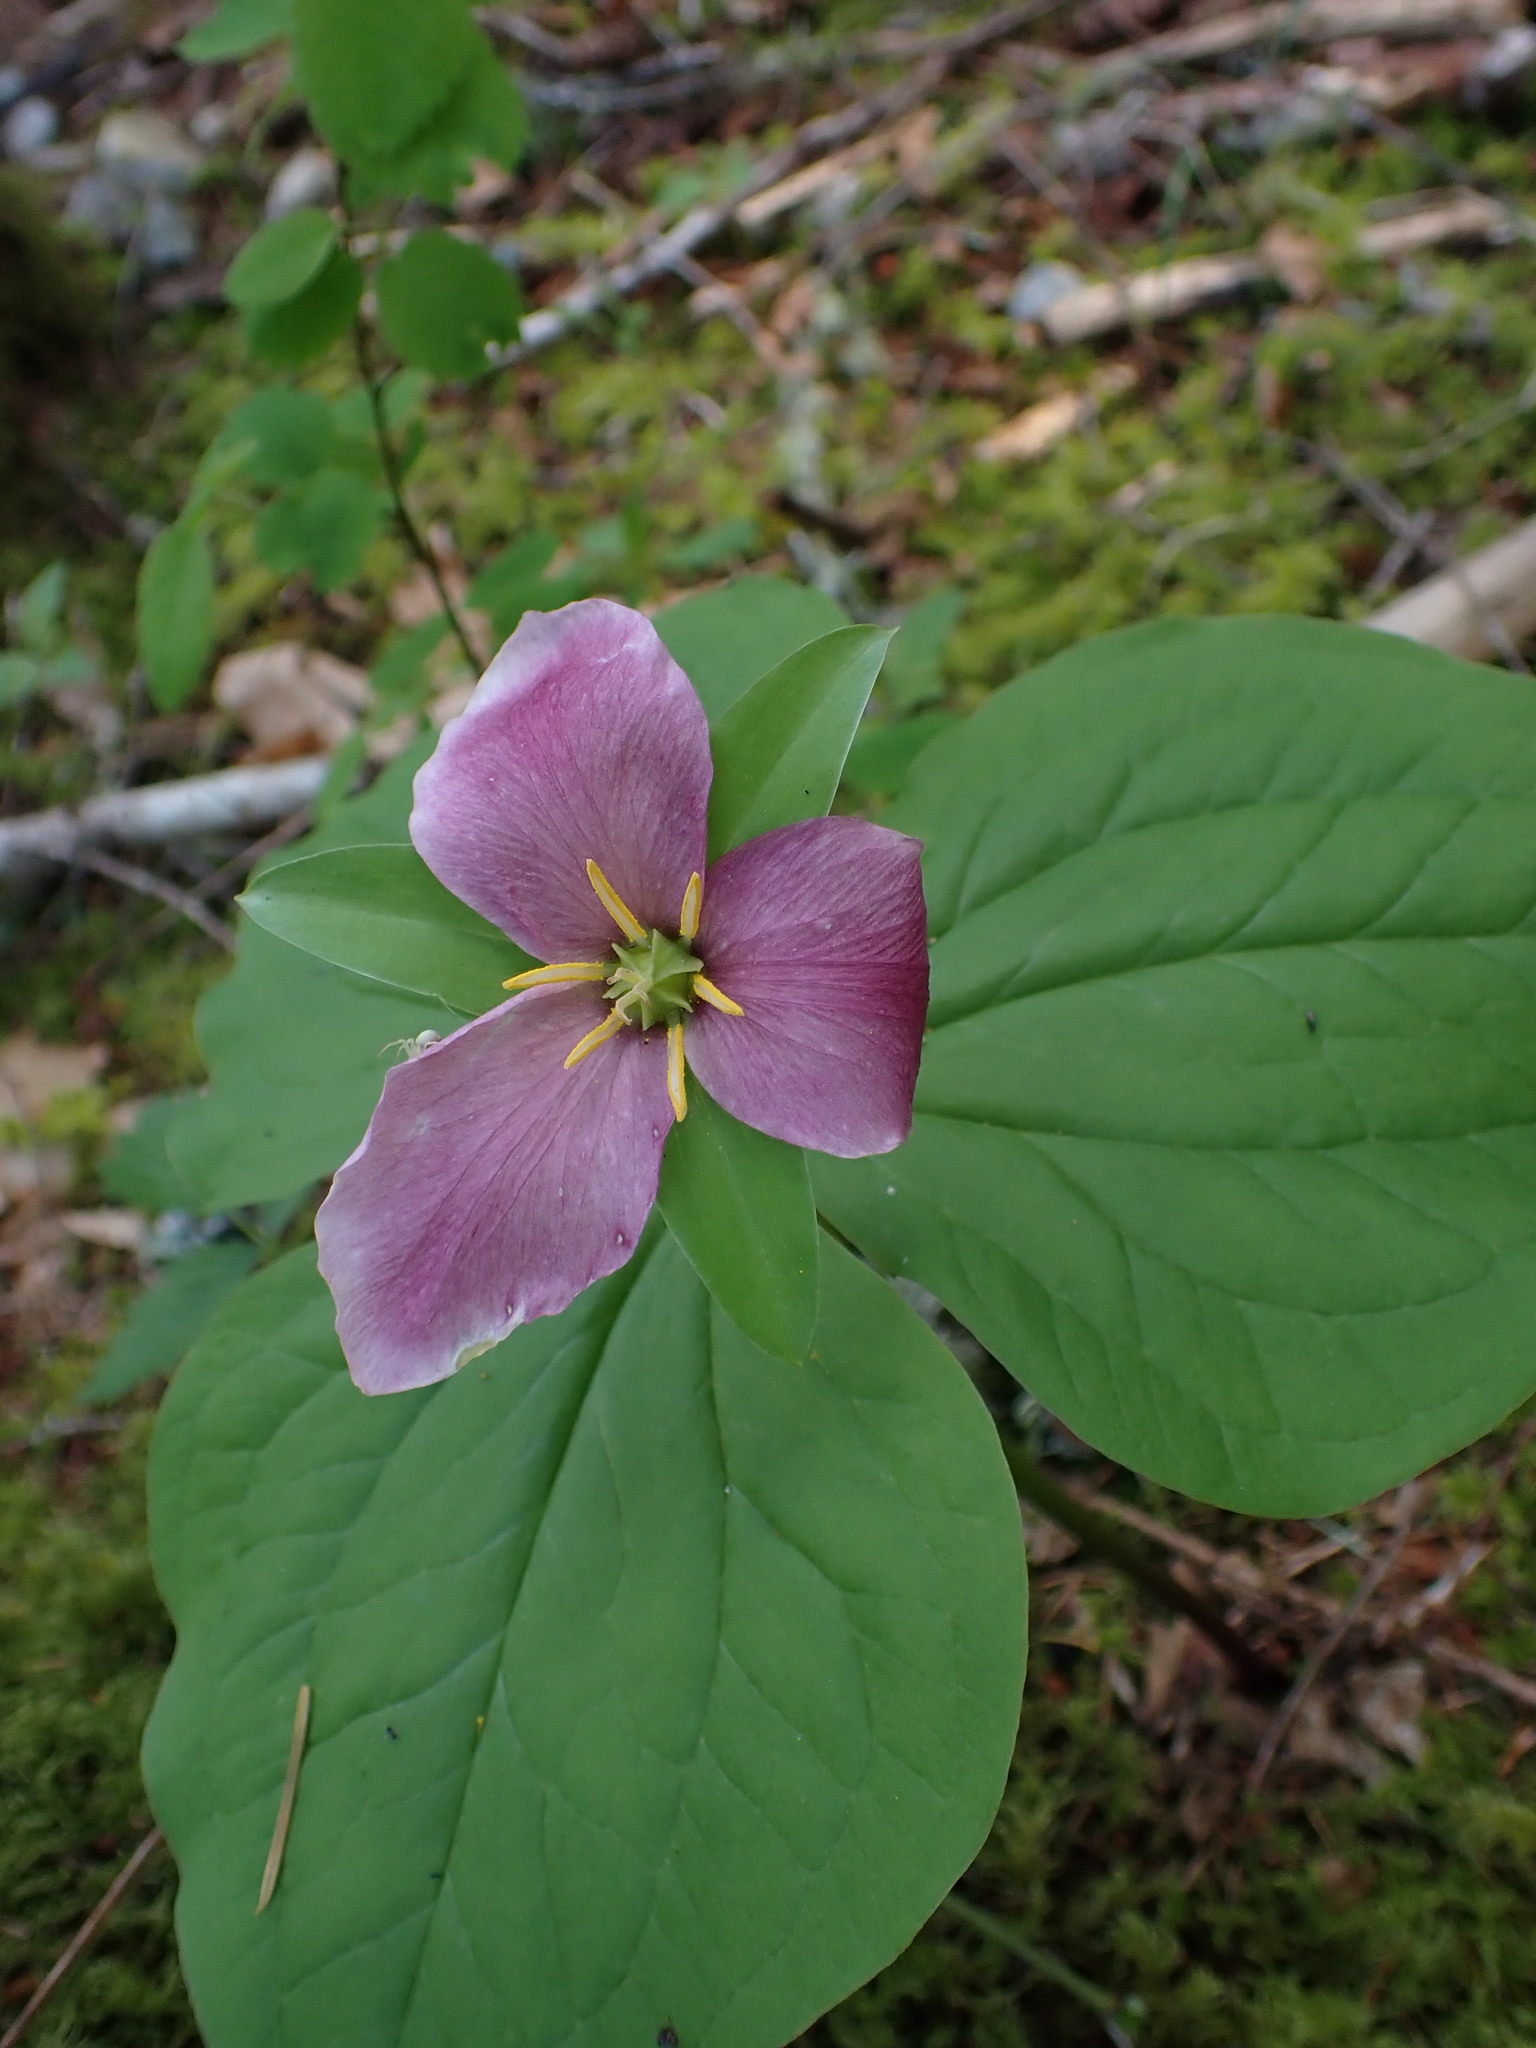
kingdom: Plantae
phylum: Tracheophyta
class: Liliopsida
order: Liliales
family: Melanthiaceae
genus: Trillium
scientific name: Trillium ovatum
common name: Pacific trillium
